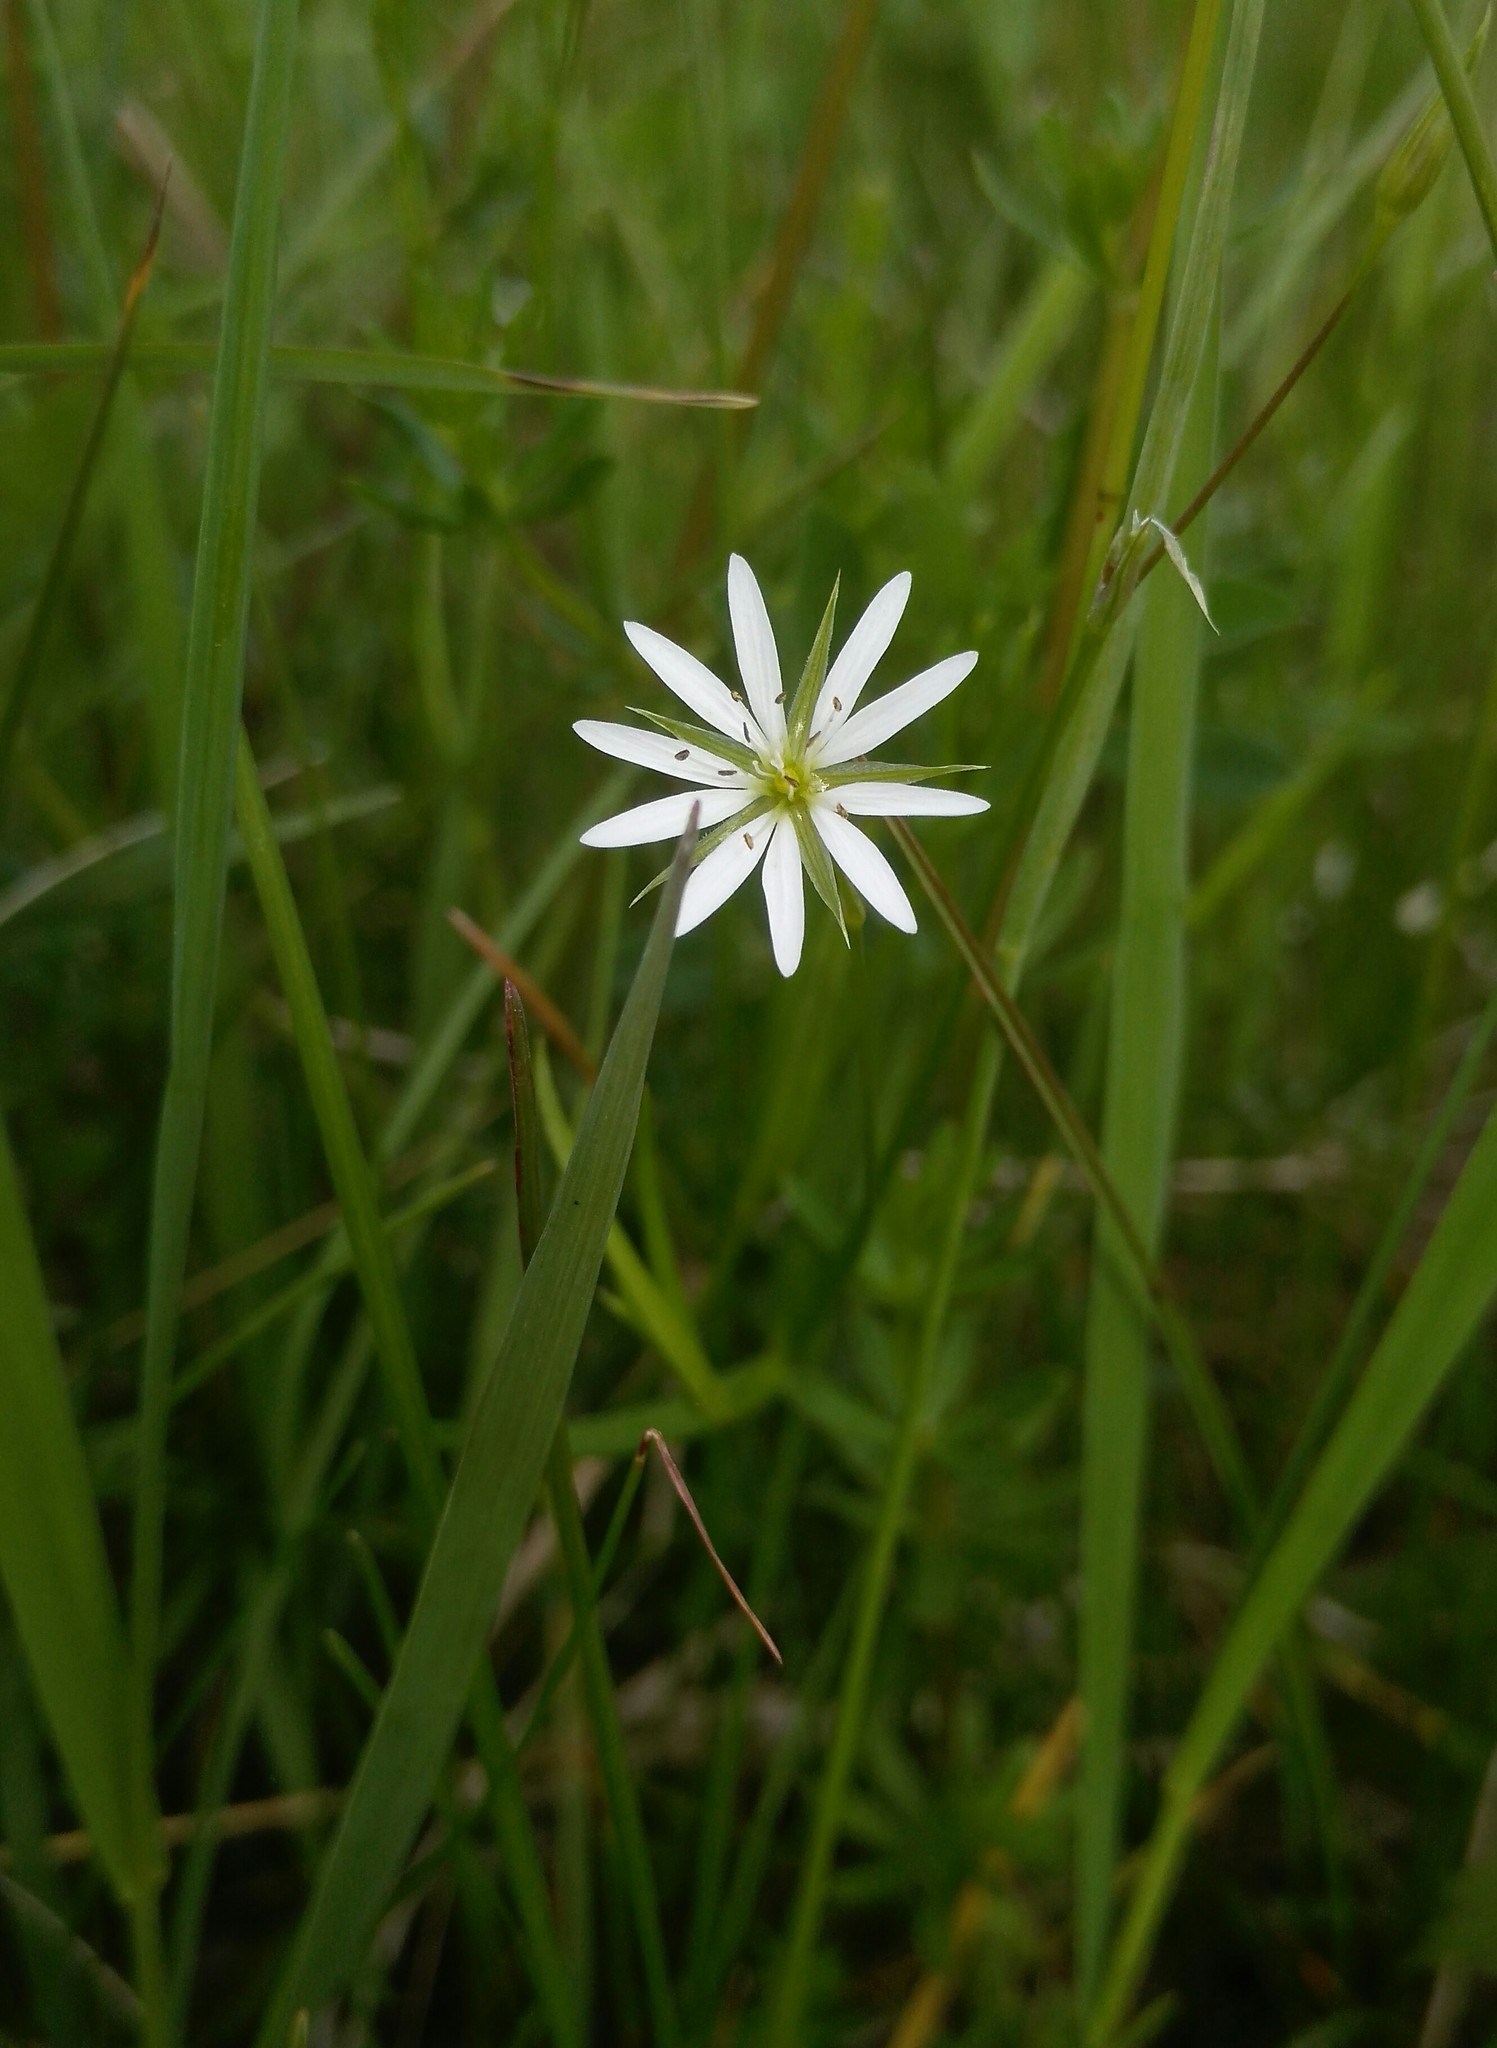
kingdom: Plantae
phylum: Tracheophyta
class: Magnoliopsida
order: Caryophyllales
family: Caryophyllaceae
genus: Stellaria
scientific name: Stellaria graminea
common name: Grass-like starwort
